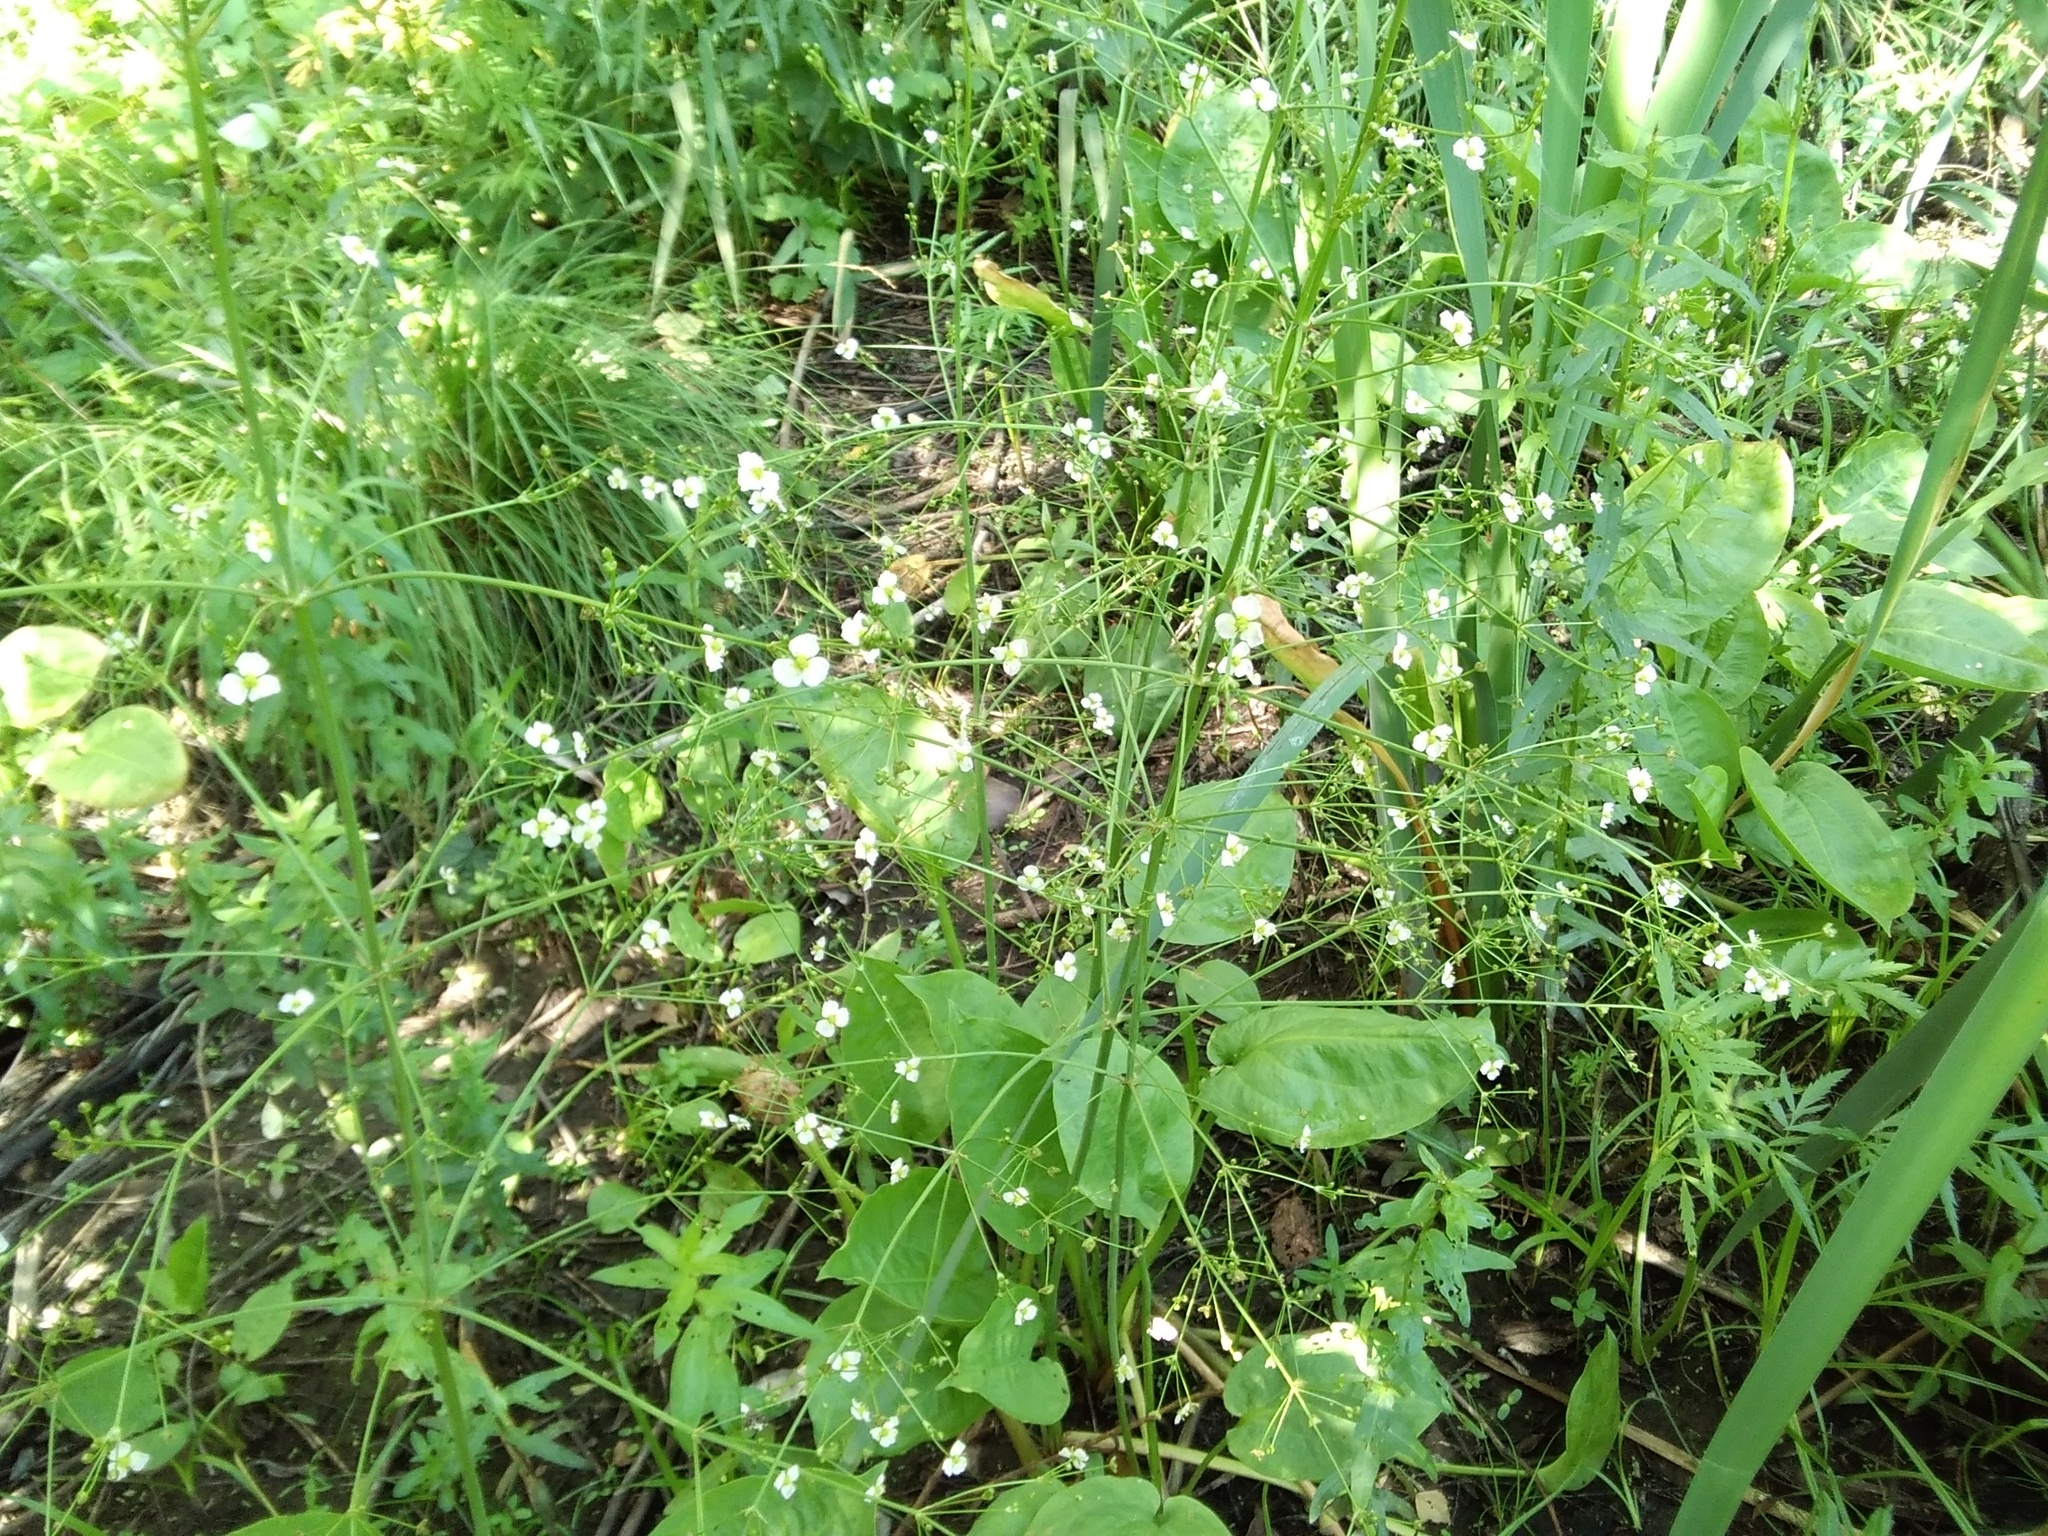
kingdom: Plantae
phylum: Tracheophyta
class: Liliopsida
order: Alismatales
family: Alismataceae
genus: Alisma
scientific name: Alisma plantago-aquatica
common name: Water-plantain
